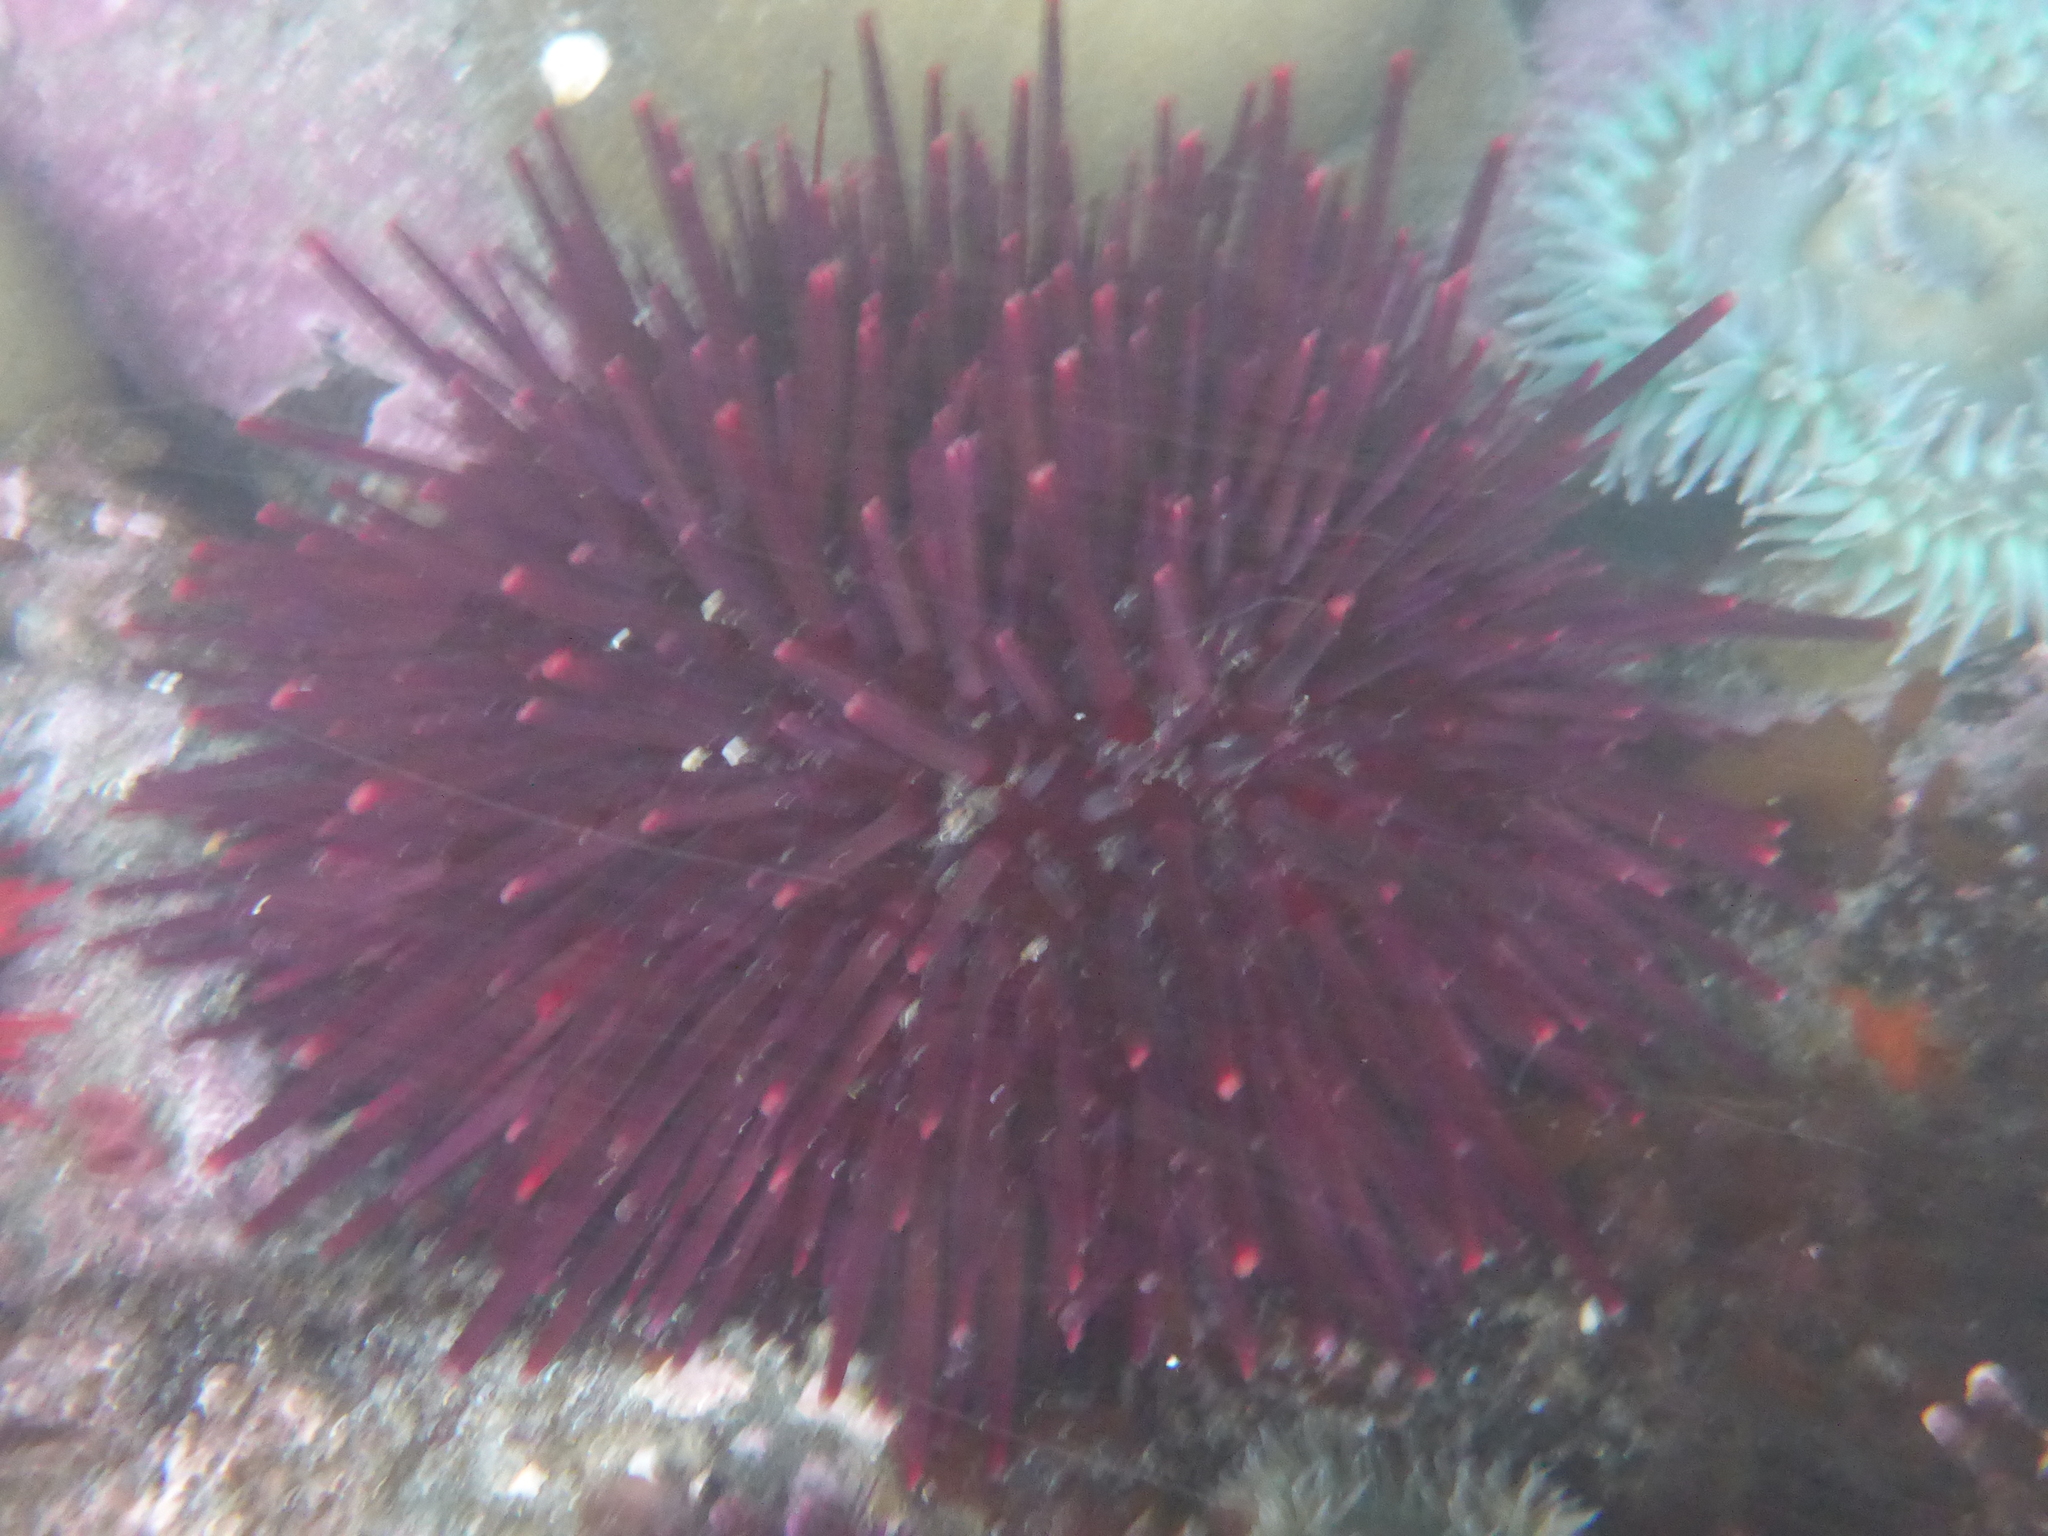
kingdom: Animalia
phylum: Echinodermata
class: Echinoidea
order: Camarodonta
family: Strongylocentrotidae
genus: Mesocentrotus
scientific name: Mesocentrotus franciscanus
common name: Red sea urchin
